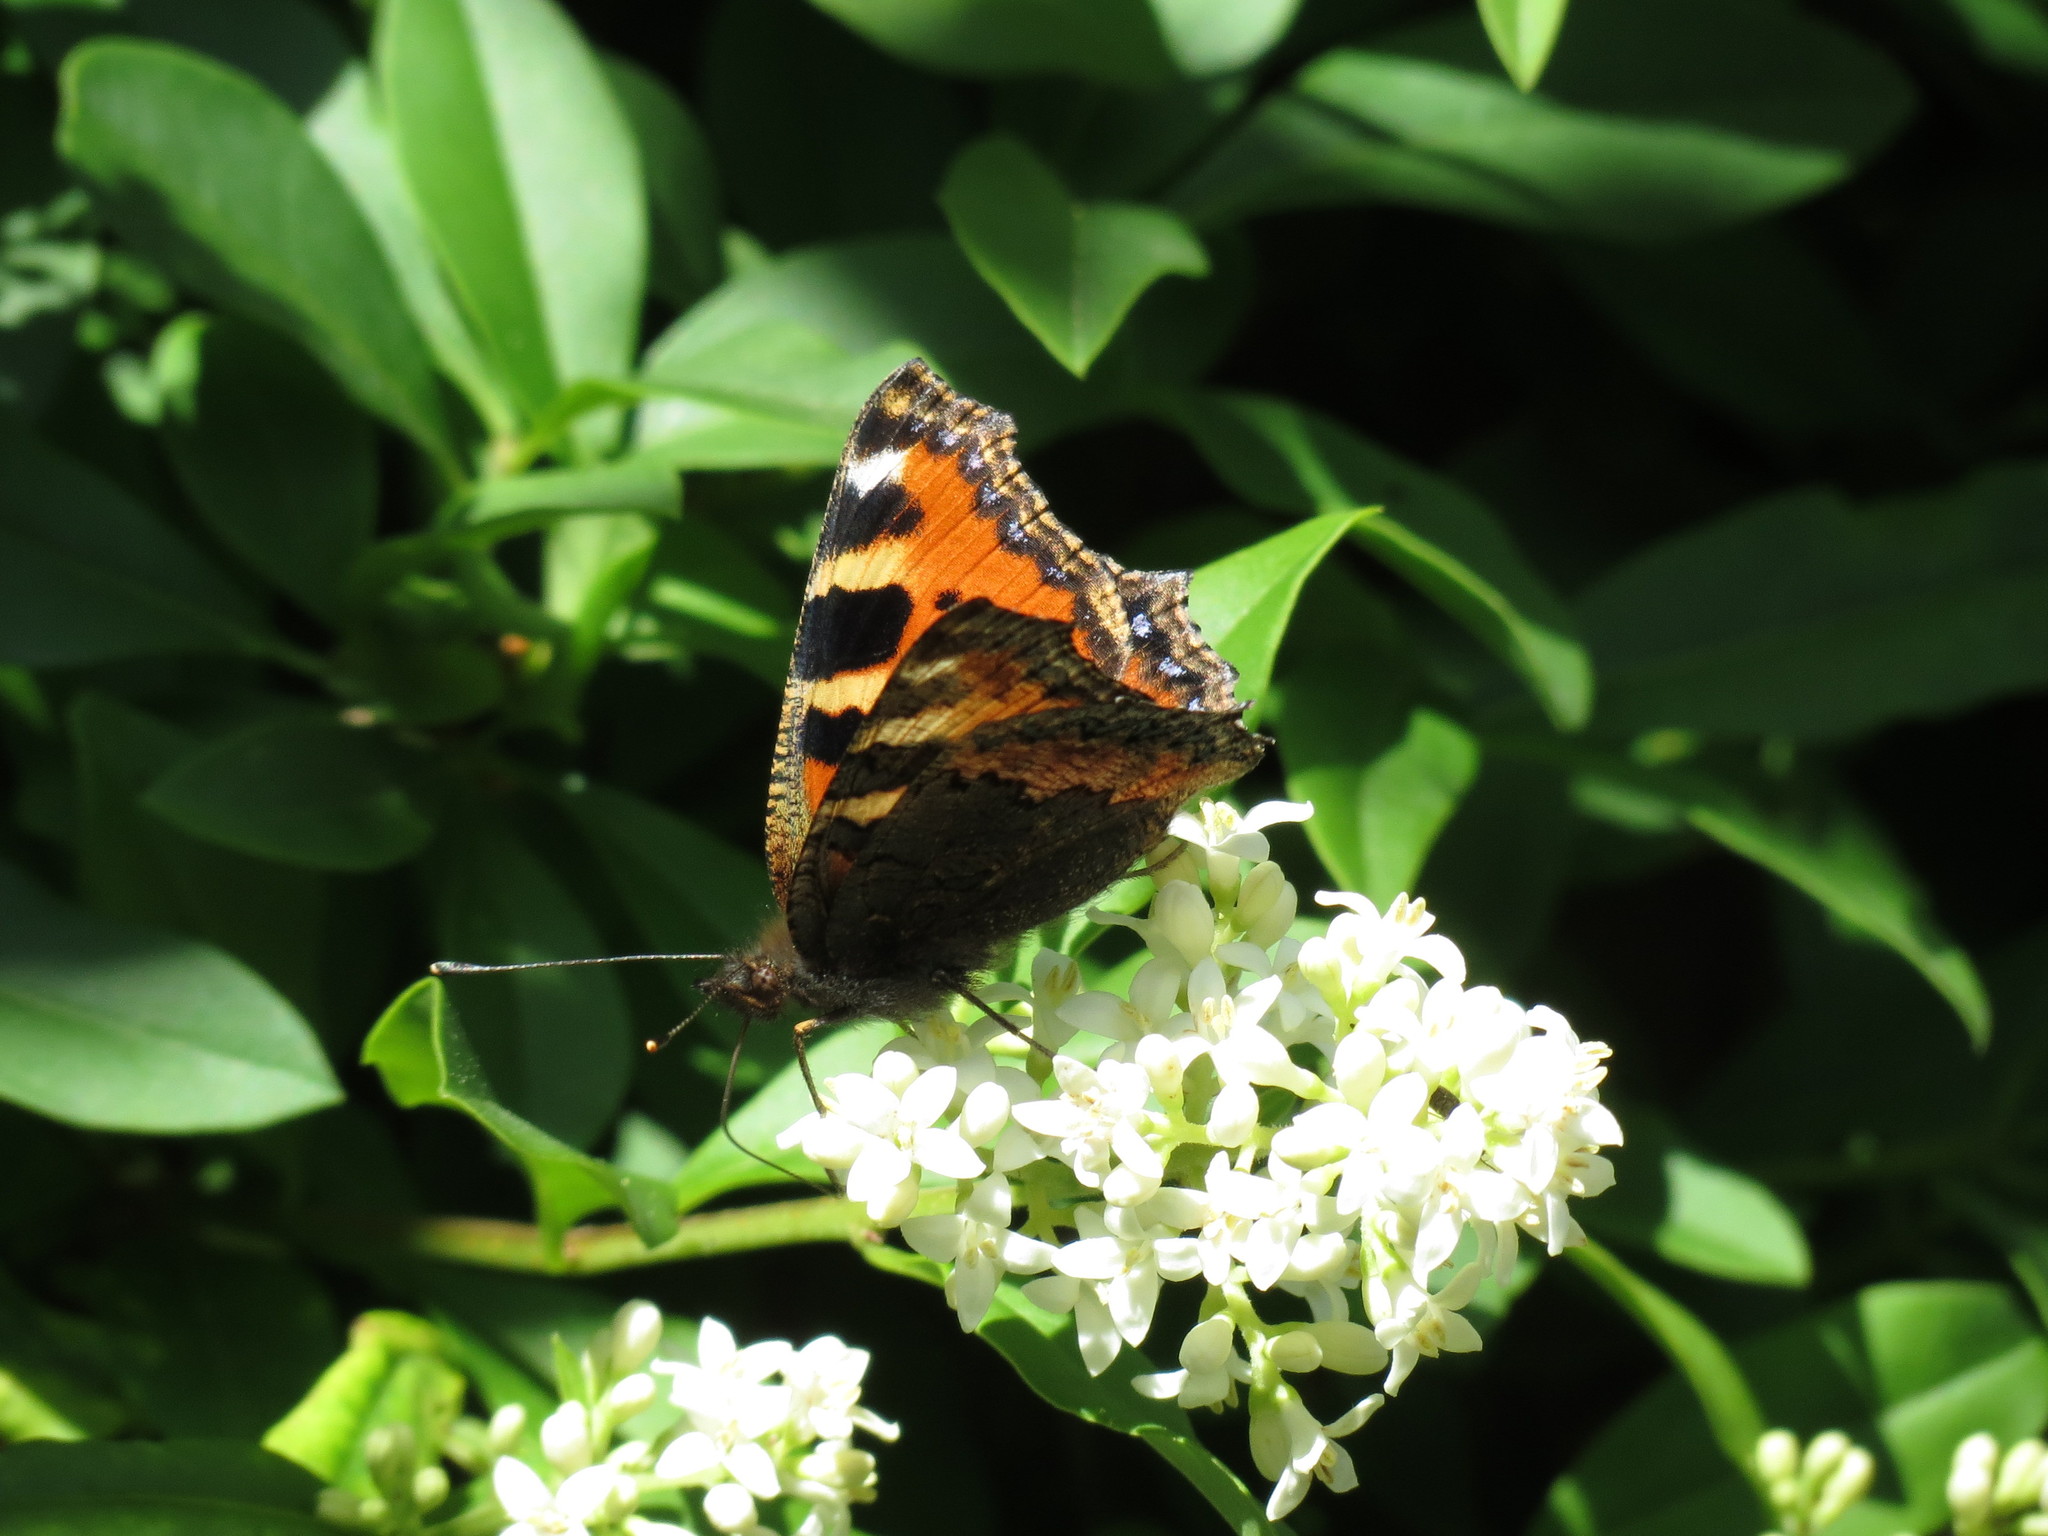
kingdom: Animalia
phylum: Arthropoda
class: Insecta
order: Lepidoptera
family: Nymphalidae
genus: Aglais
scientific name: Aglais urticae
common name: Small tortoiseshell
